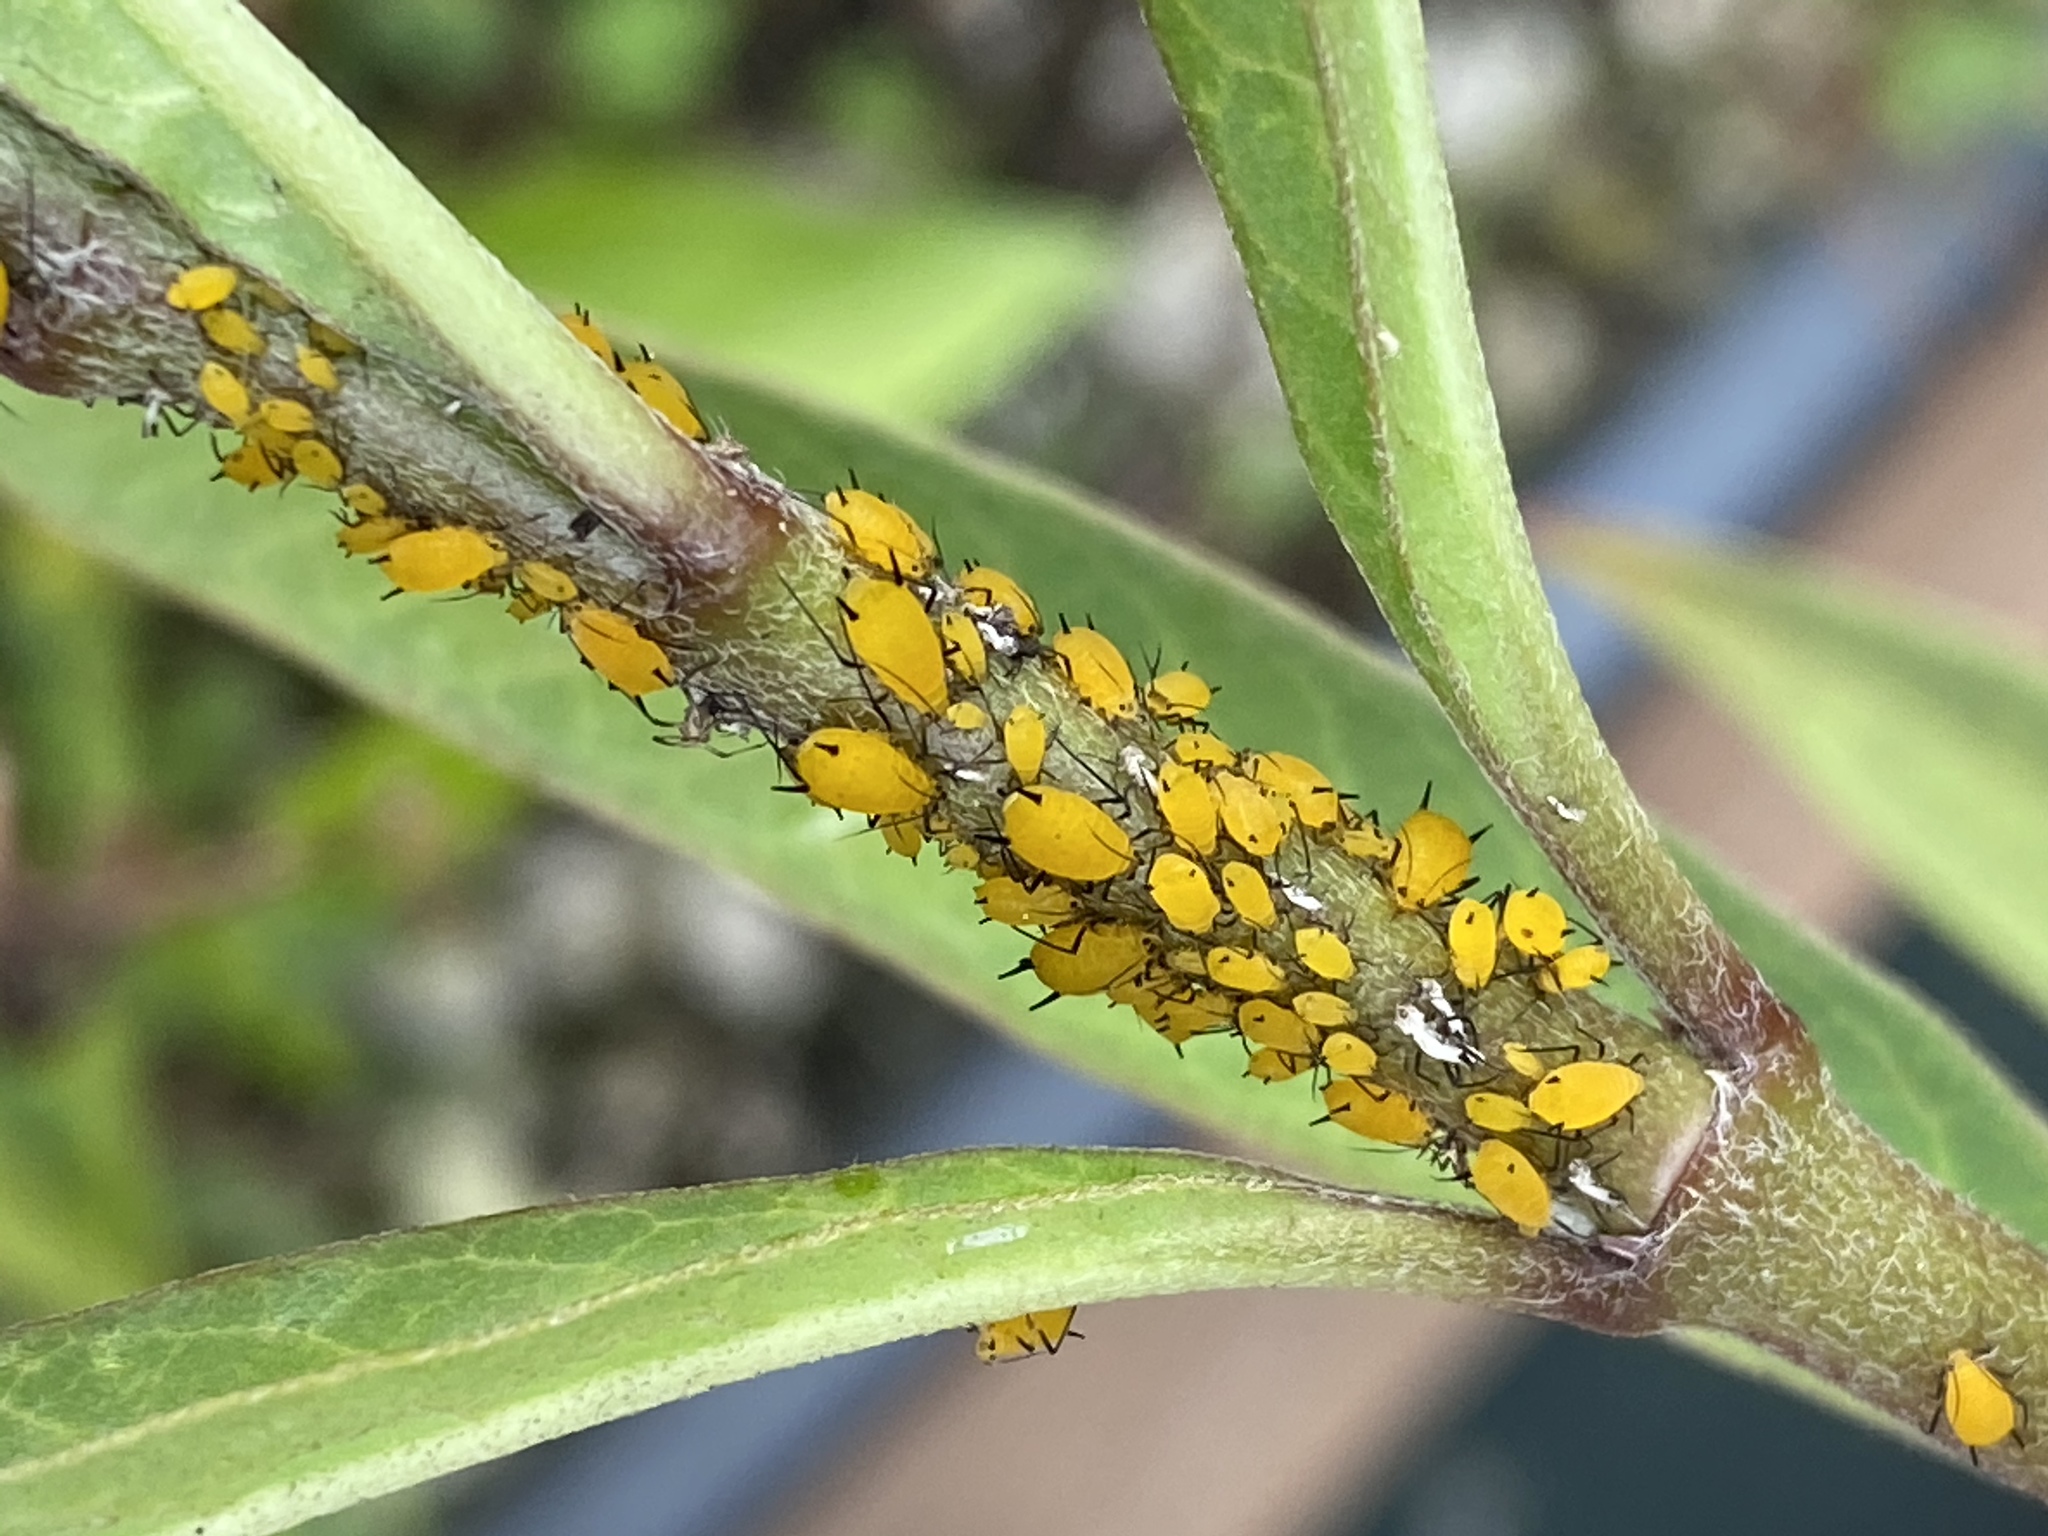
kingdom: Animalia
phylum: Arthropoda
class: Insecta
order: Hemiptera
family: Aphididae
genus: Aphis
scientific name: Aphis nerii
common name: Oleander aphid
